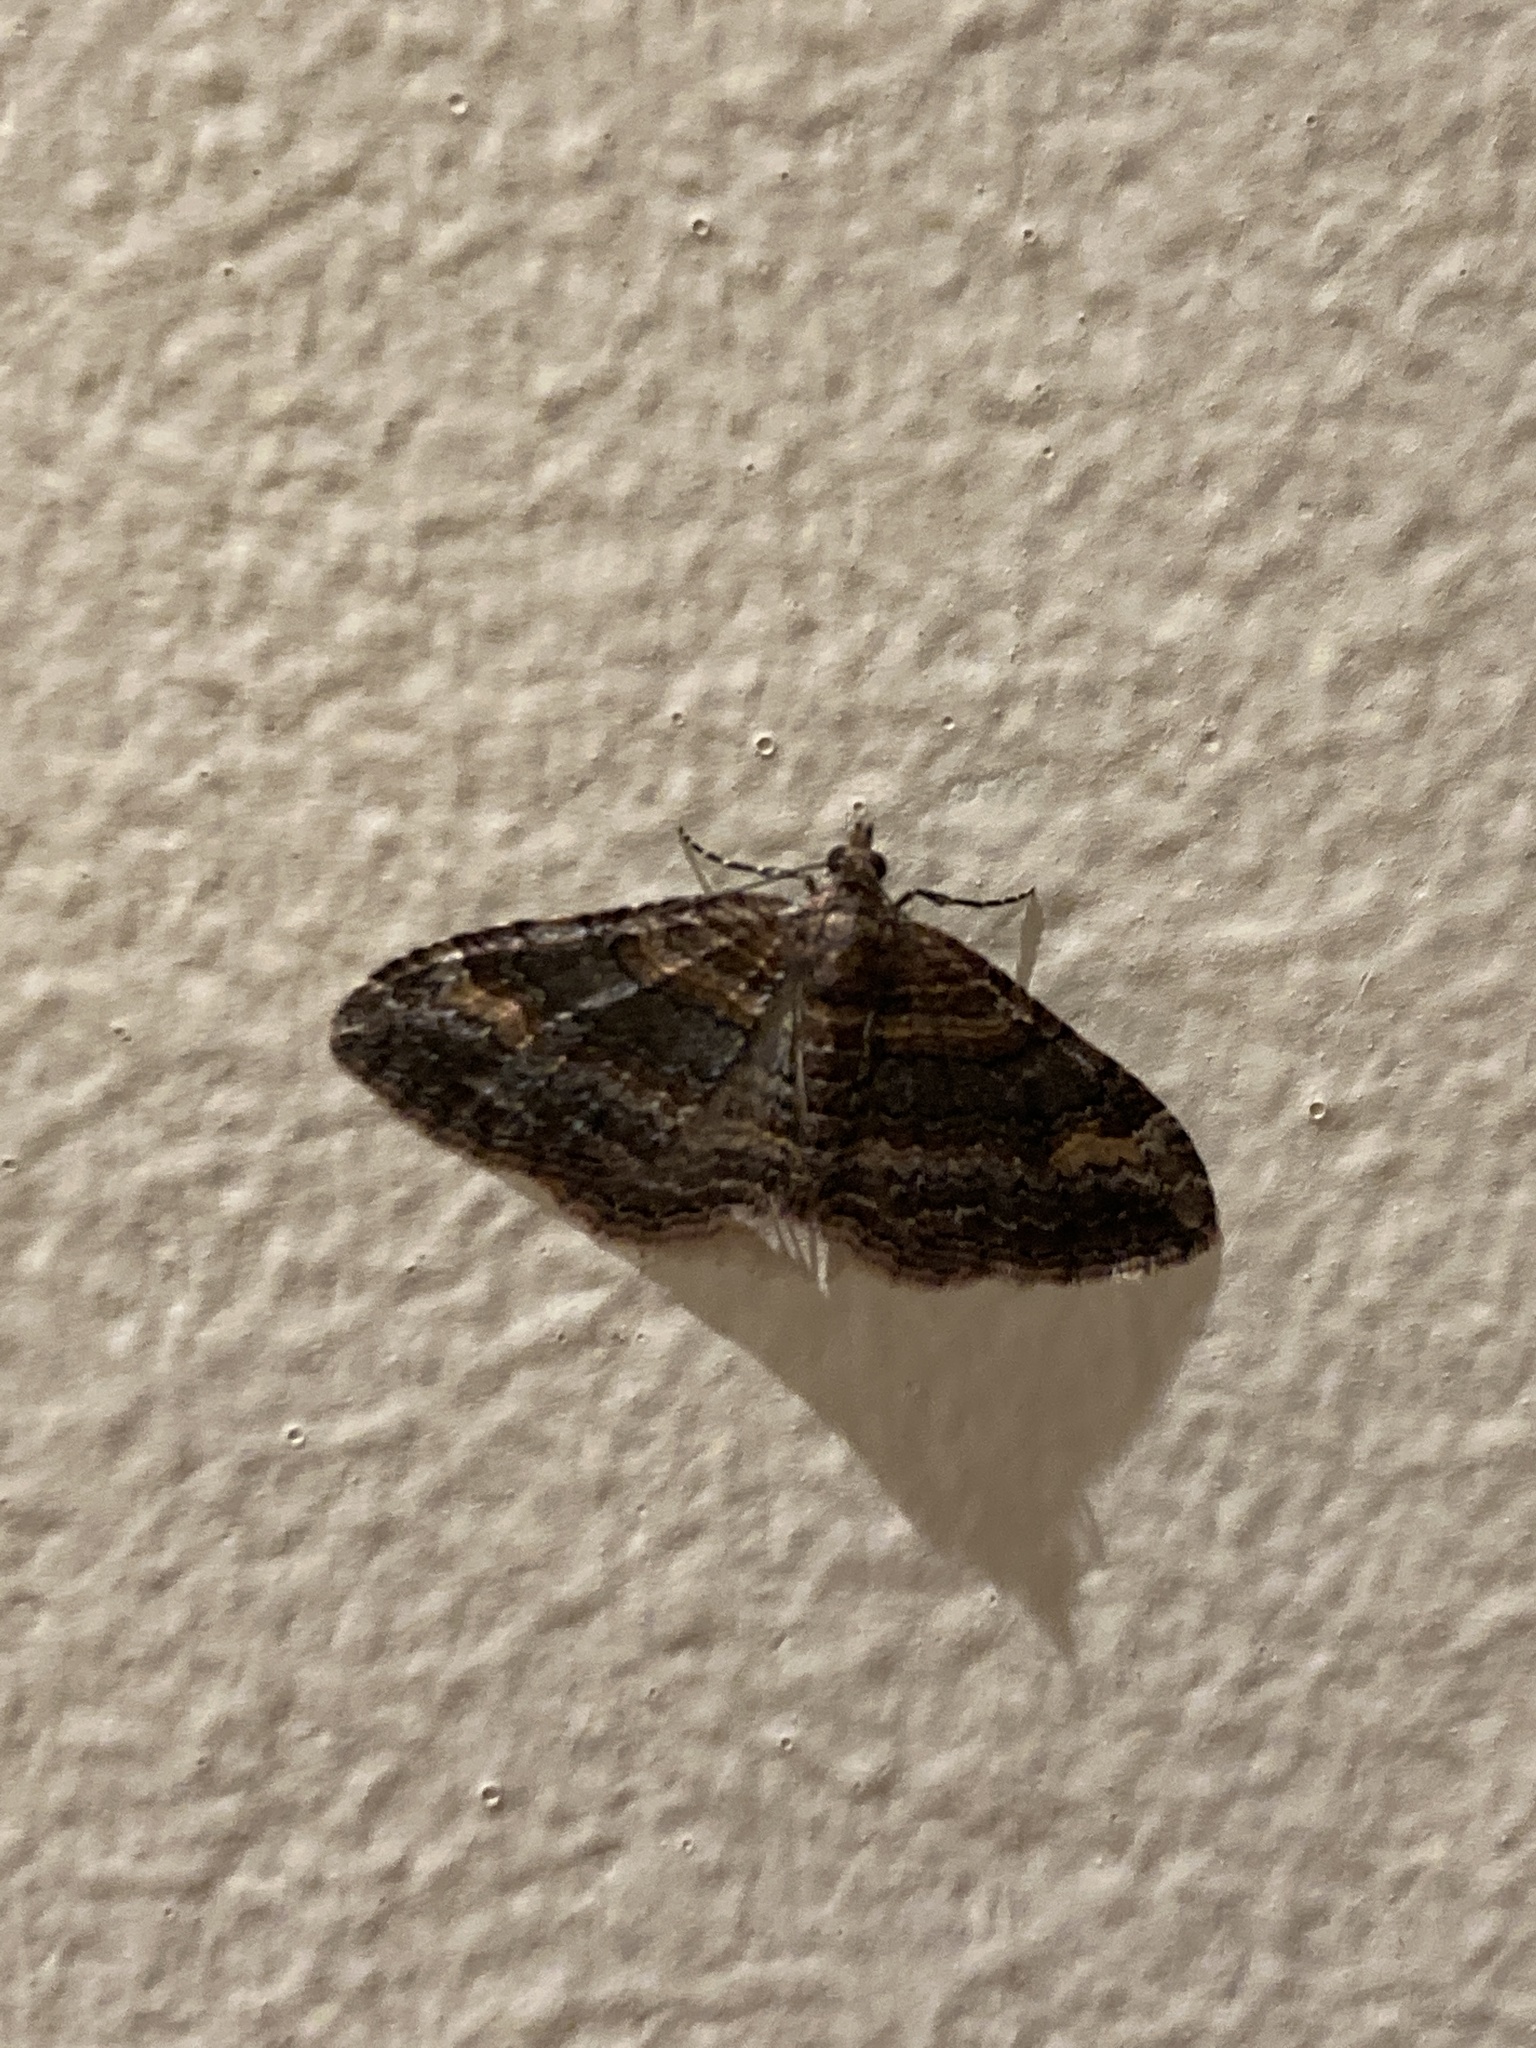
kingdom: Animalia
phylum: Arthropoda
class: Insecta
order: Lepidoptera
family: Geometridae
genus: Epyaxa
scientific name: Epyaxa lucidata
